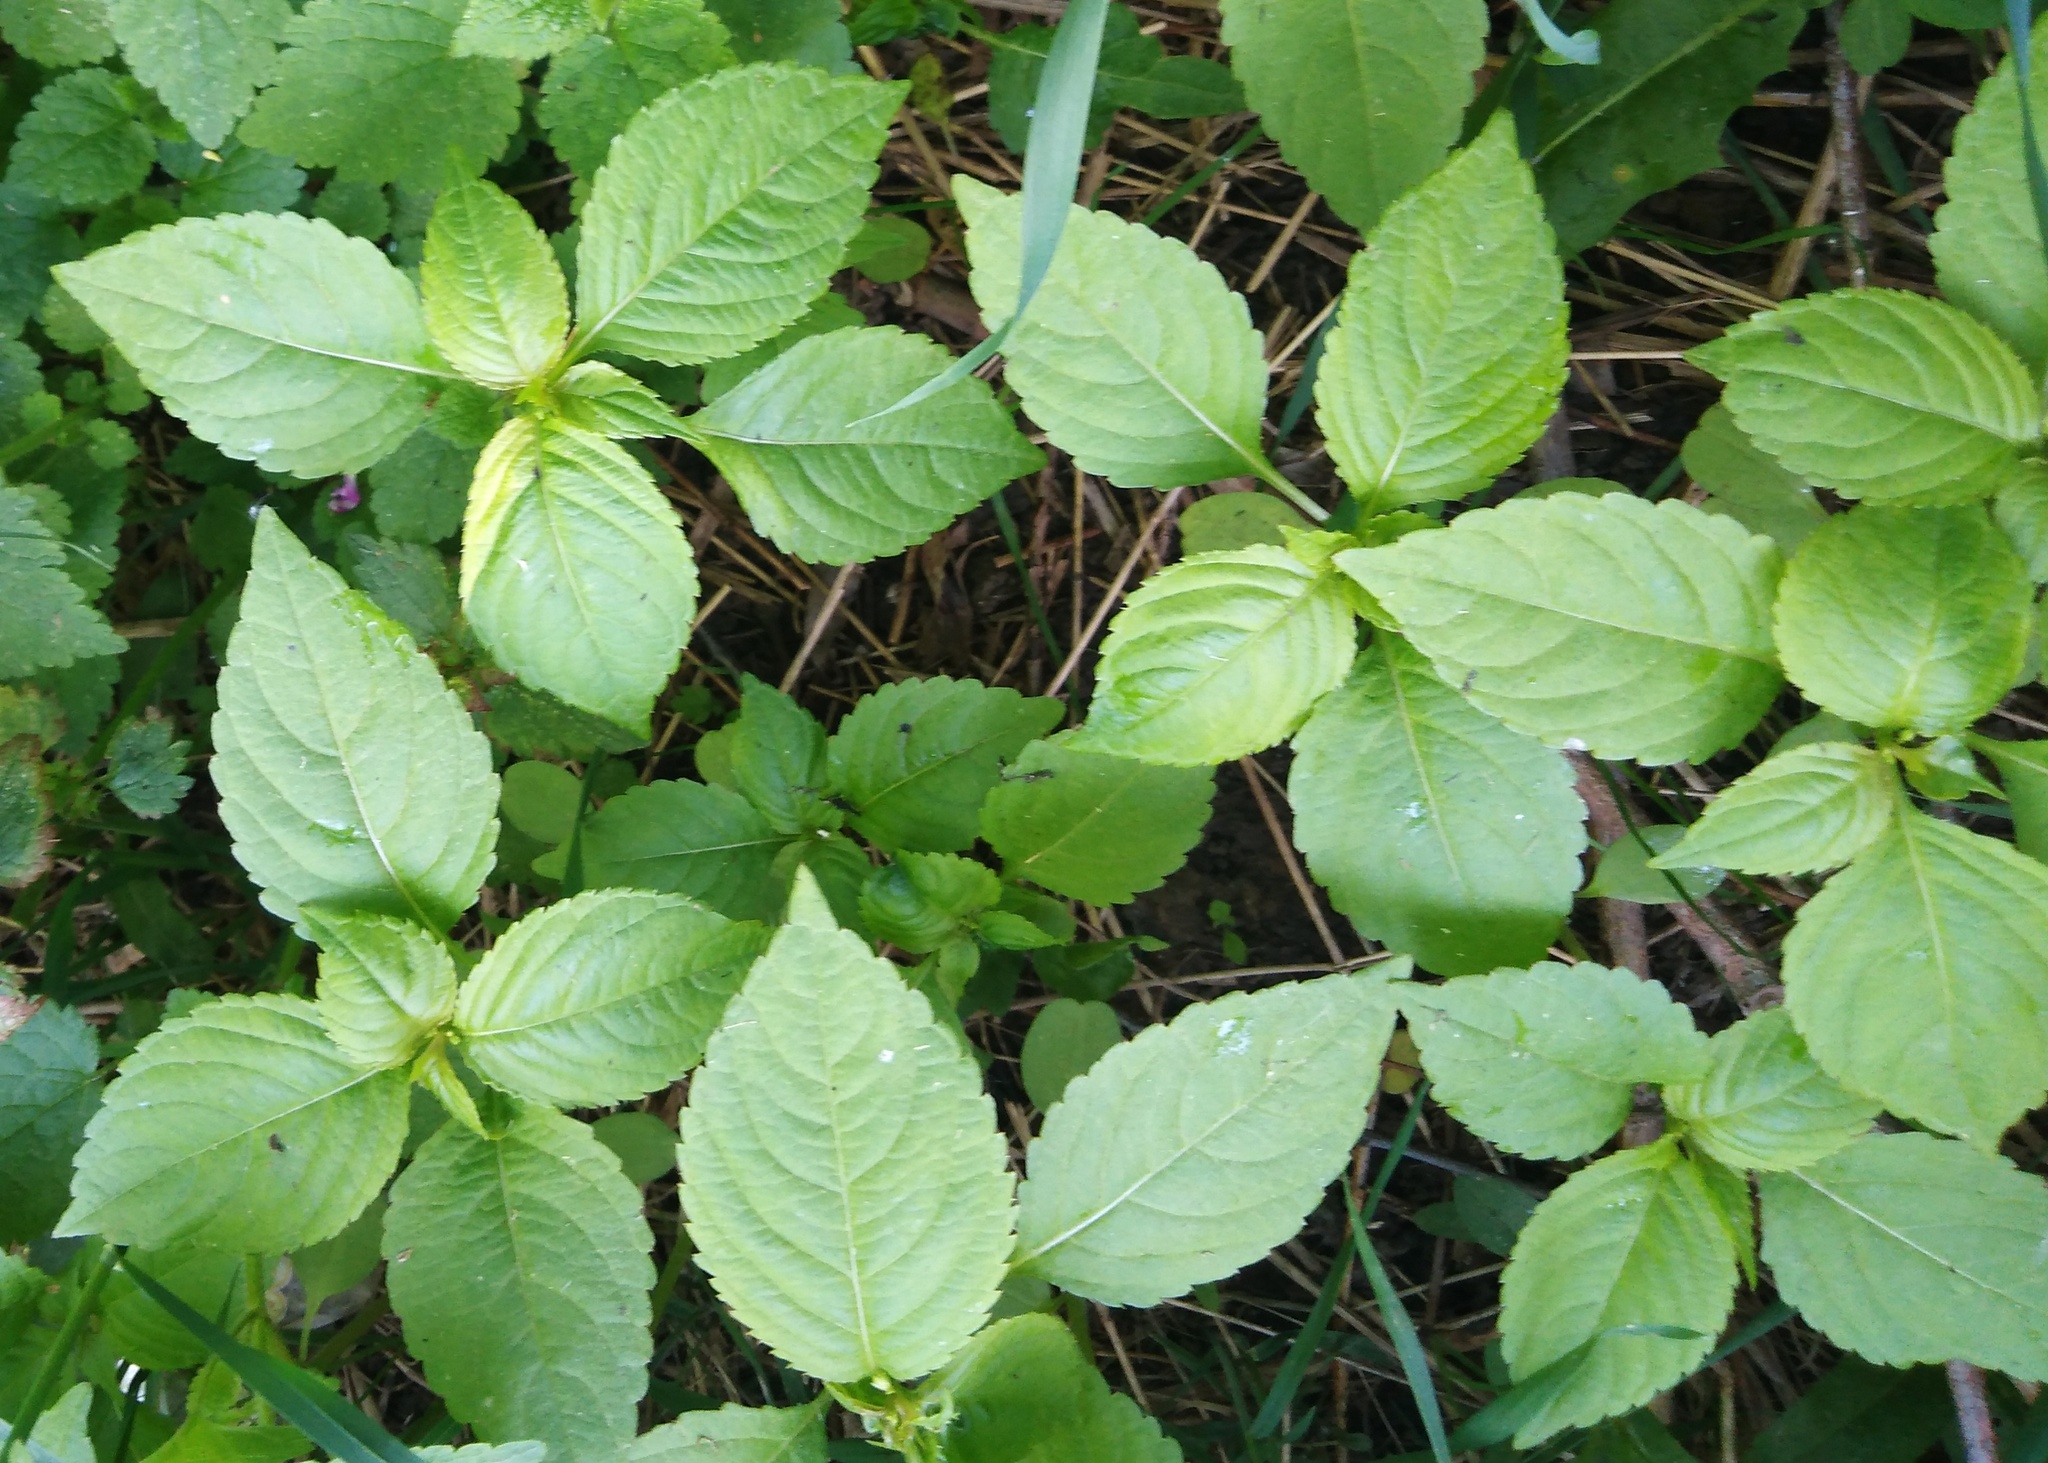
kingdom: Plantae
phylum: Tracheophyta
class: Magnoliopsida
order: Ericales
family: Balsaminaceae
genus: Impatiens
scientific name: Impatiens parviflora
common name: Small balsam
